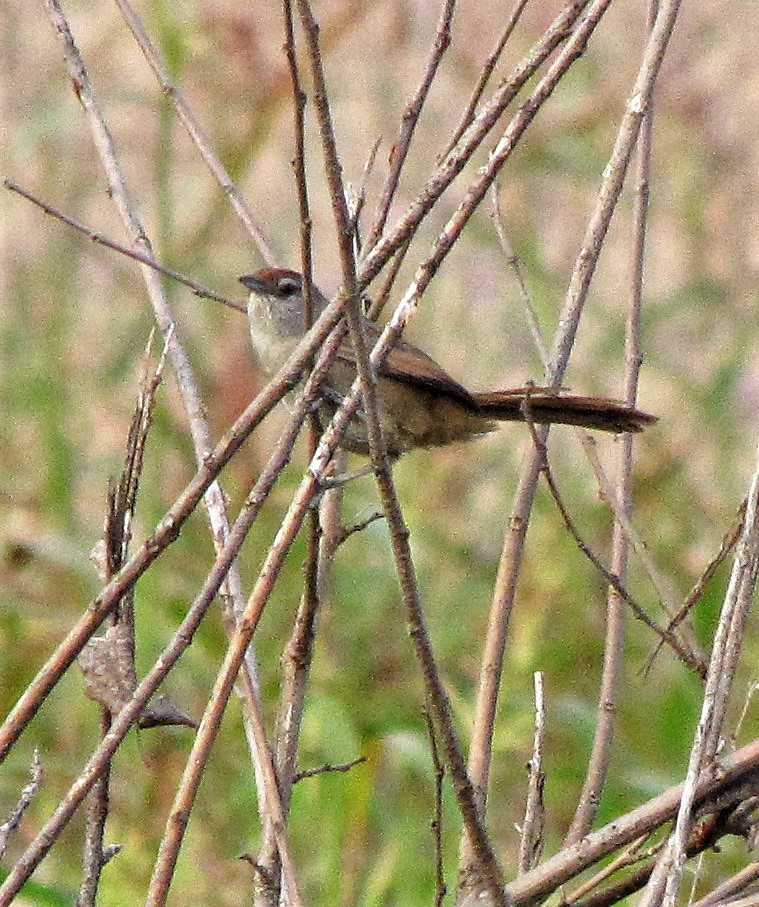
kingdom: Animalia
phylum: Chordata
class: Aves
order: Passeriformes
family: Furnariidae
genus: Phacellodomus
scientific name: Phacellodomus rufifrons
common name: Rufous-fronted thornbird
